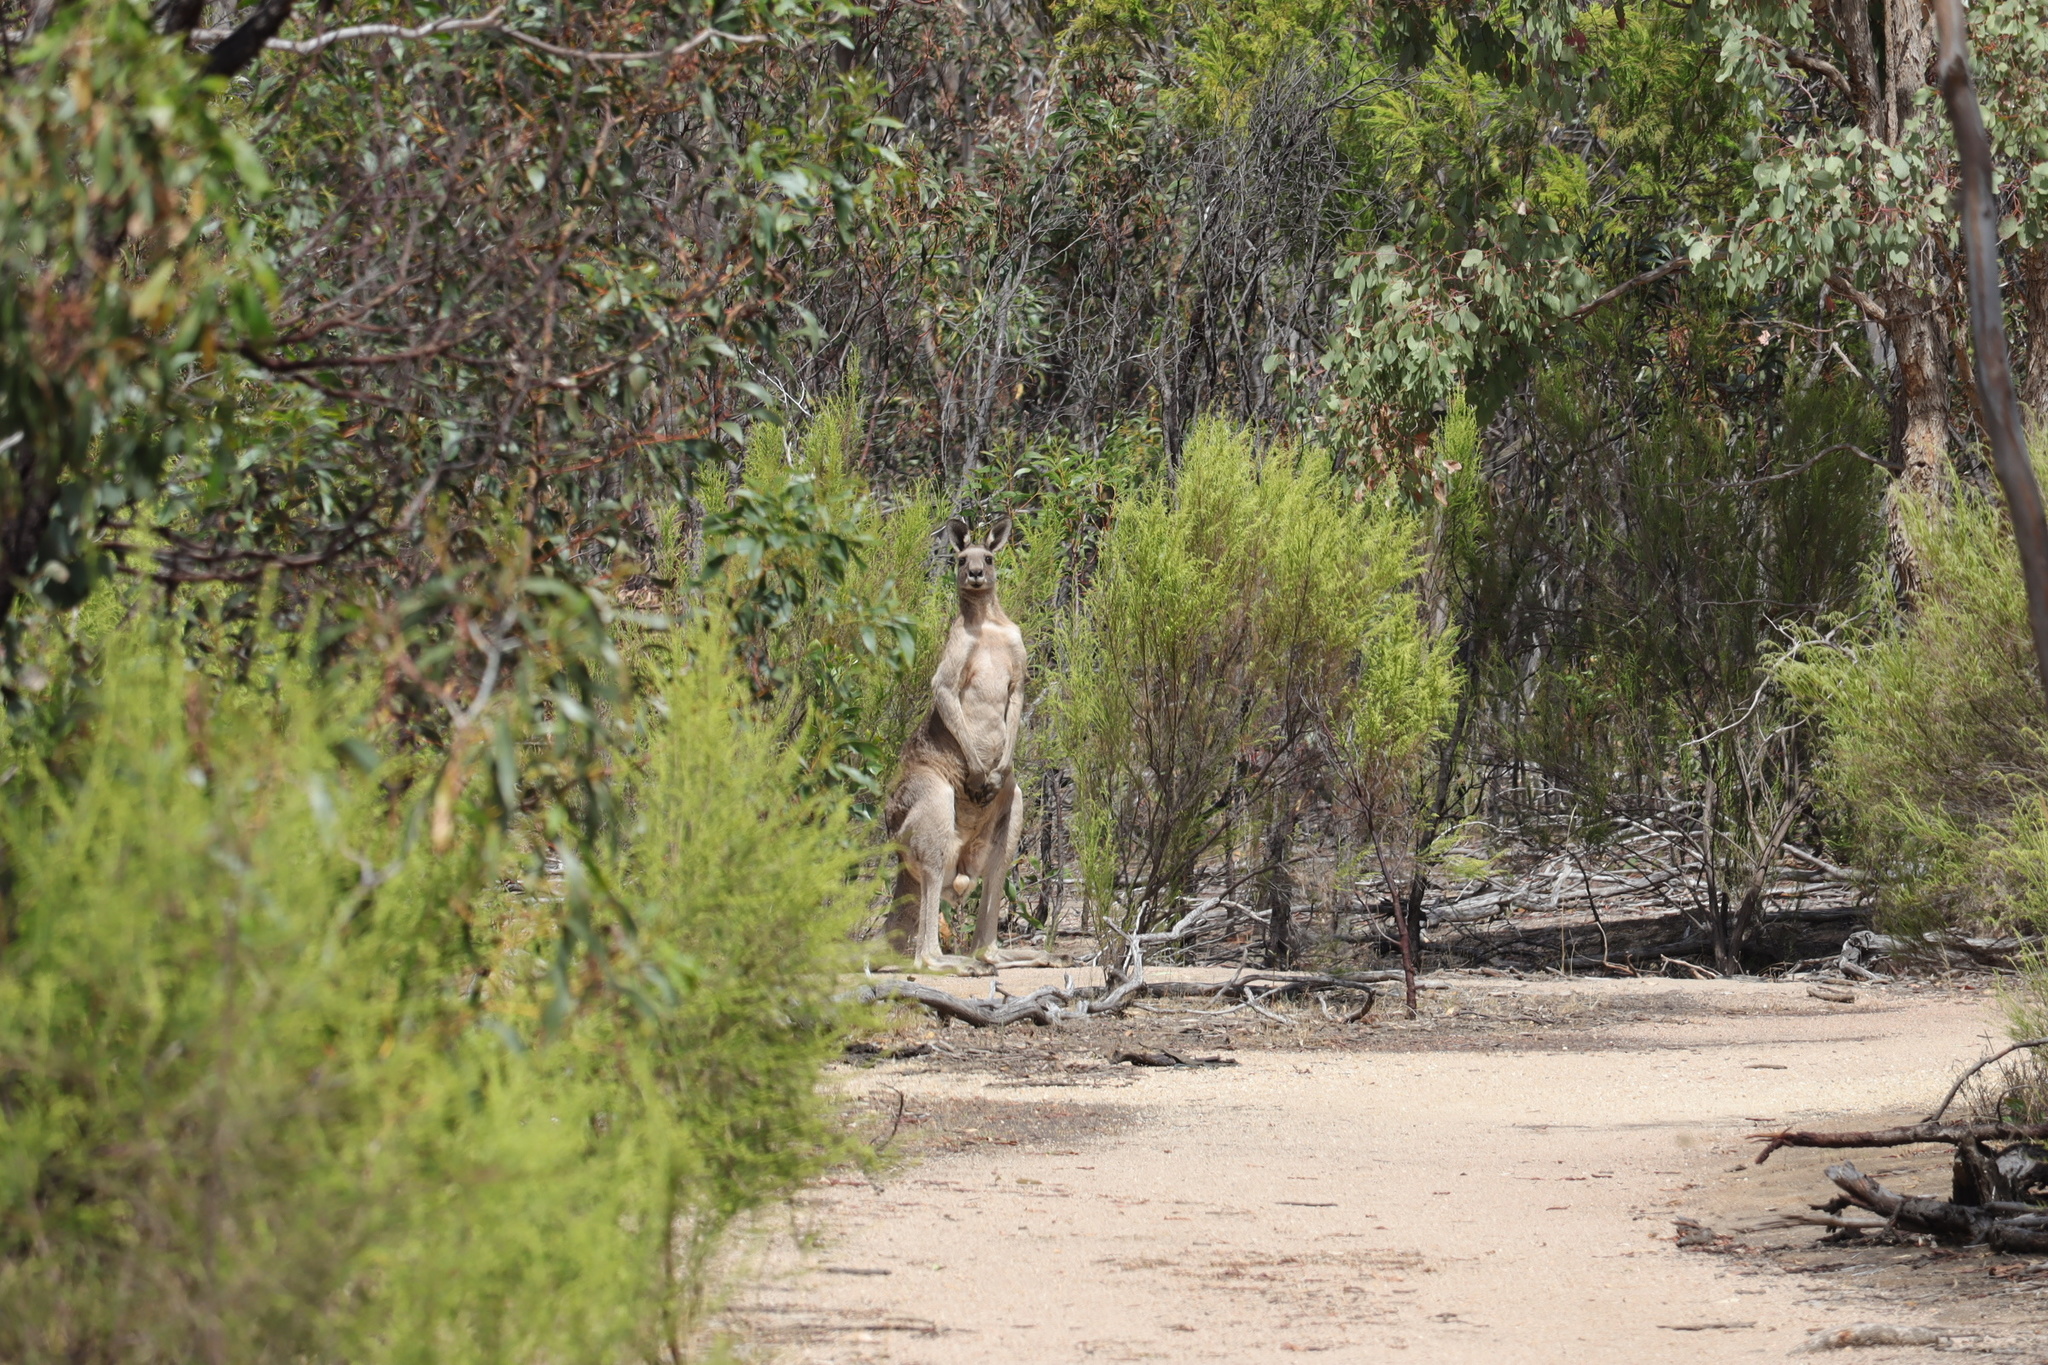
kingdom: Animalia
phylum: Chordata
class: Mammalia
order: Diprotodontia
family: Macropodidae
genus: Macropus
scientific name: Macropus giganteus
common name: Eastern grey kangaroo
